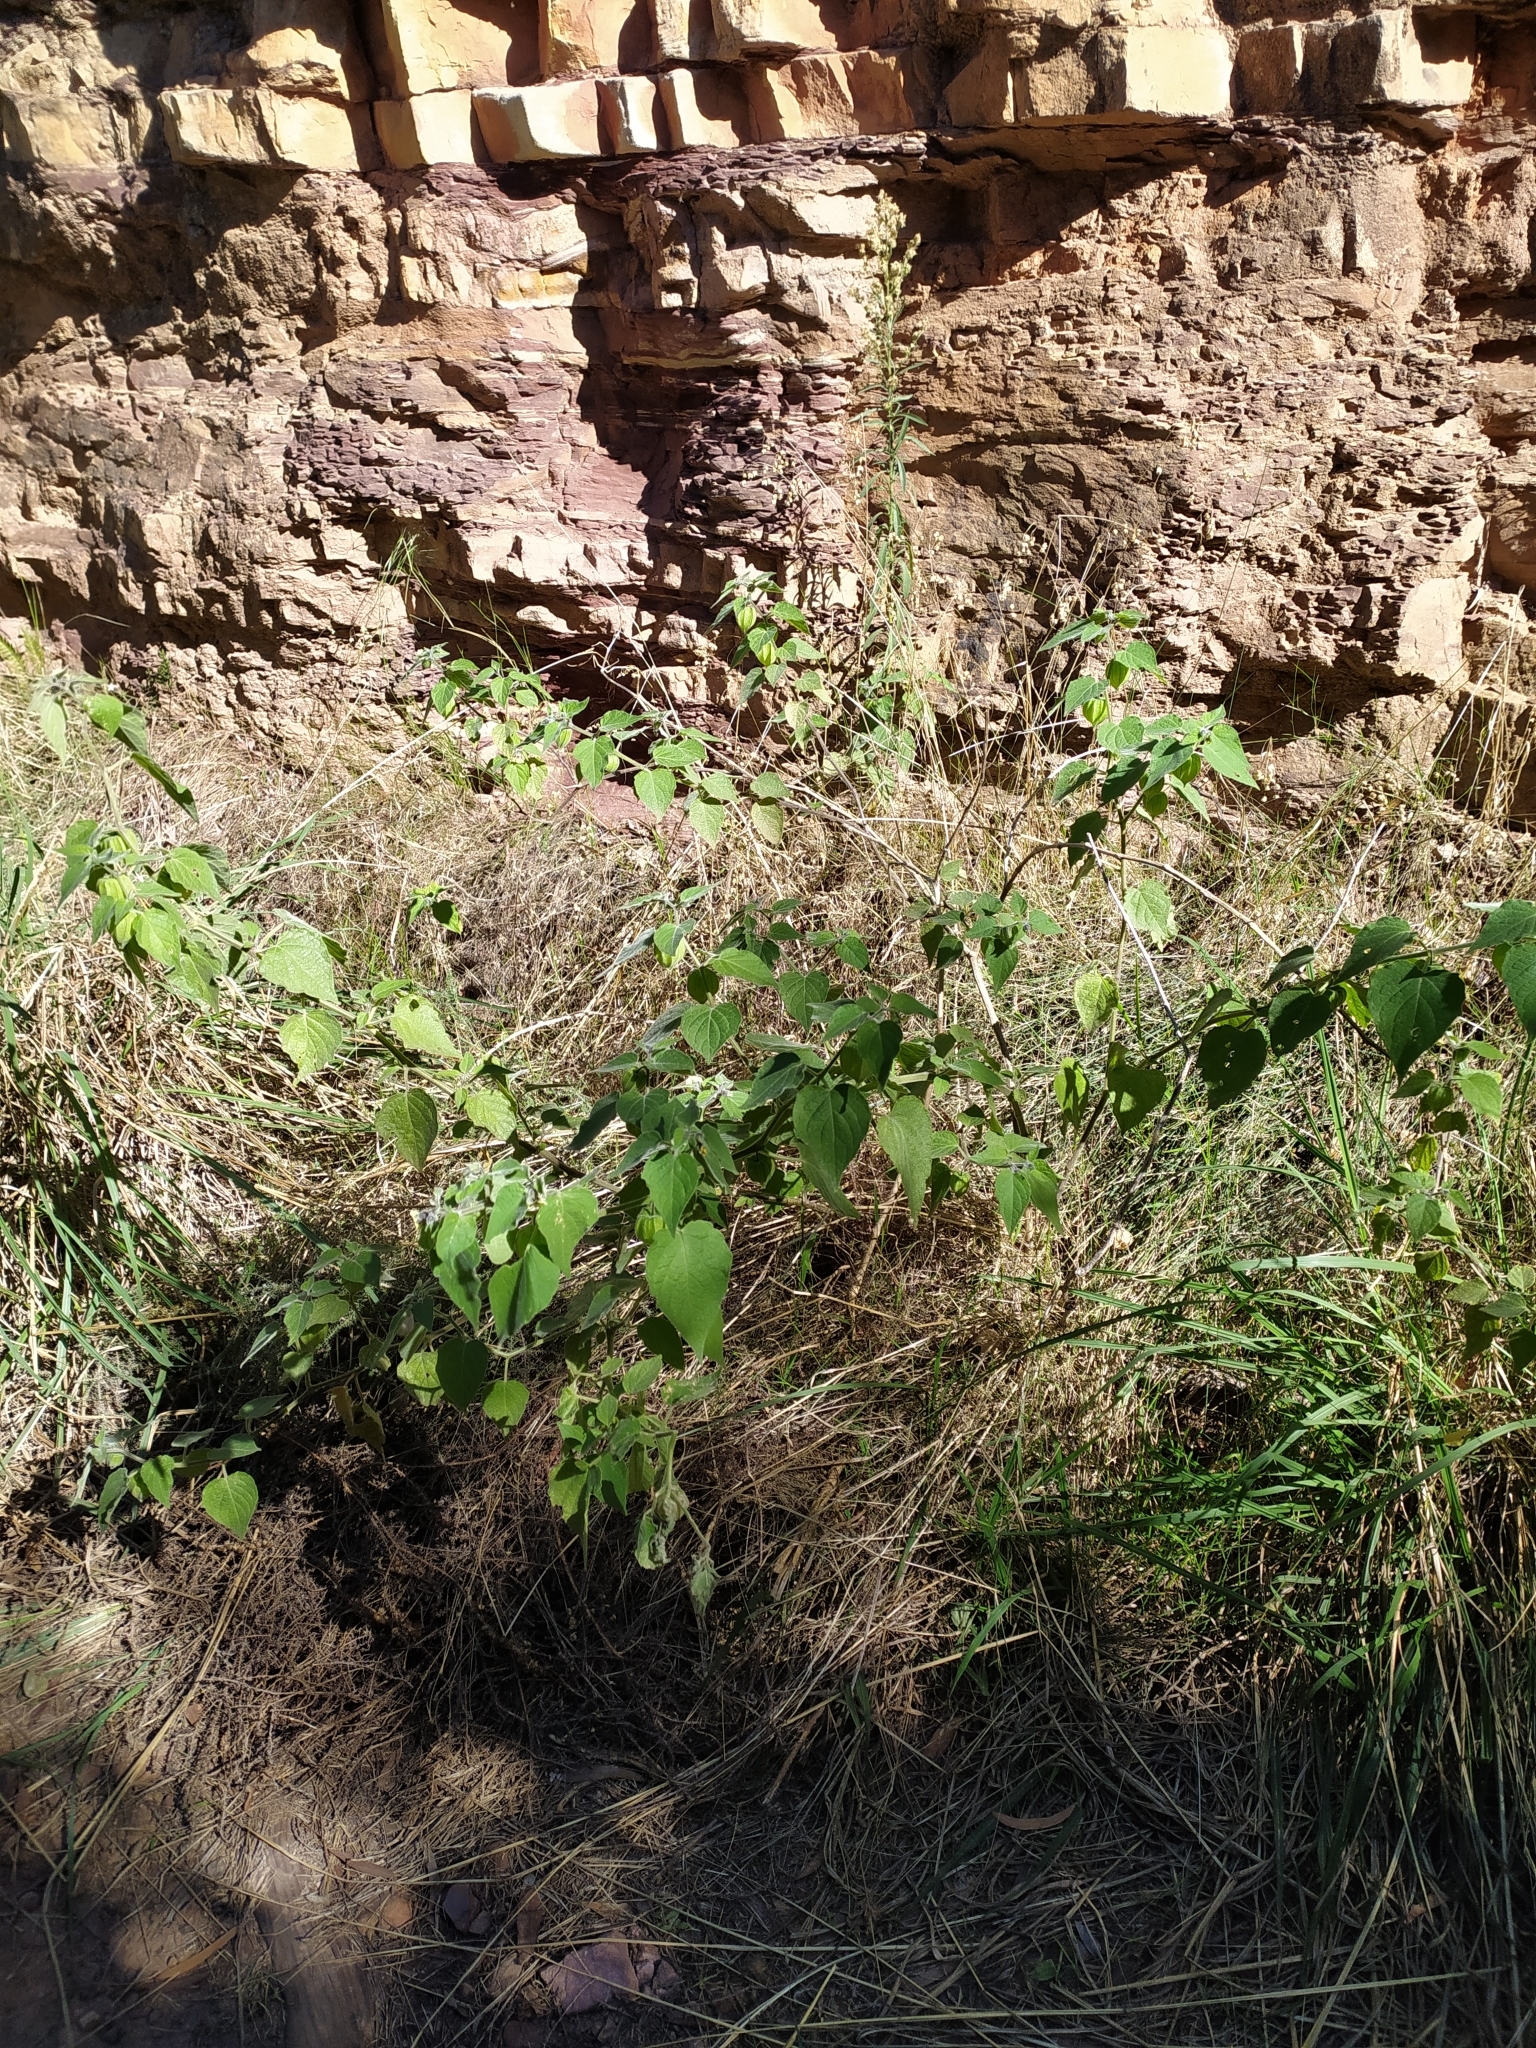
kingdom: Plantae
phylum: Tracheophyta
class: Magnoliopsida
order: Solanales
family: Solanaceae
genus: Physalis
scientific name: Physalis peruviana
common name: Cape-gooseberry
